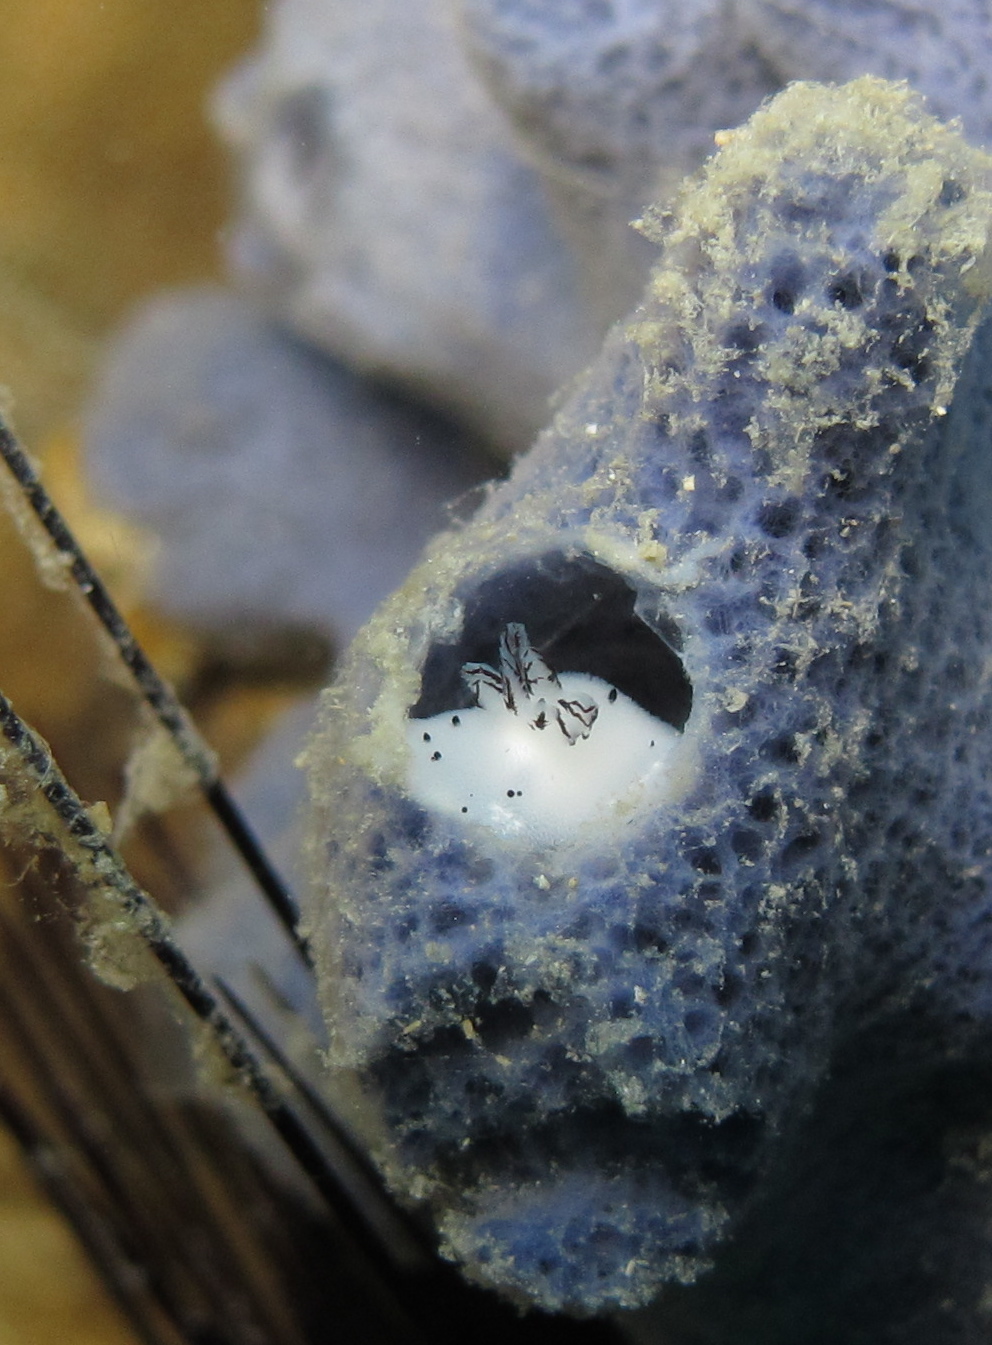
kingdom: Animalia
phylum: Mollusca
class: Gastropoda
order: Nudibranchia
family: Discodorididae
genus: Jorunna
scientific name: Jorunna funebris
